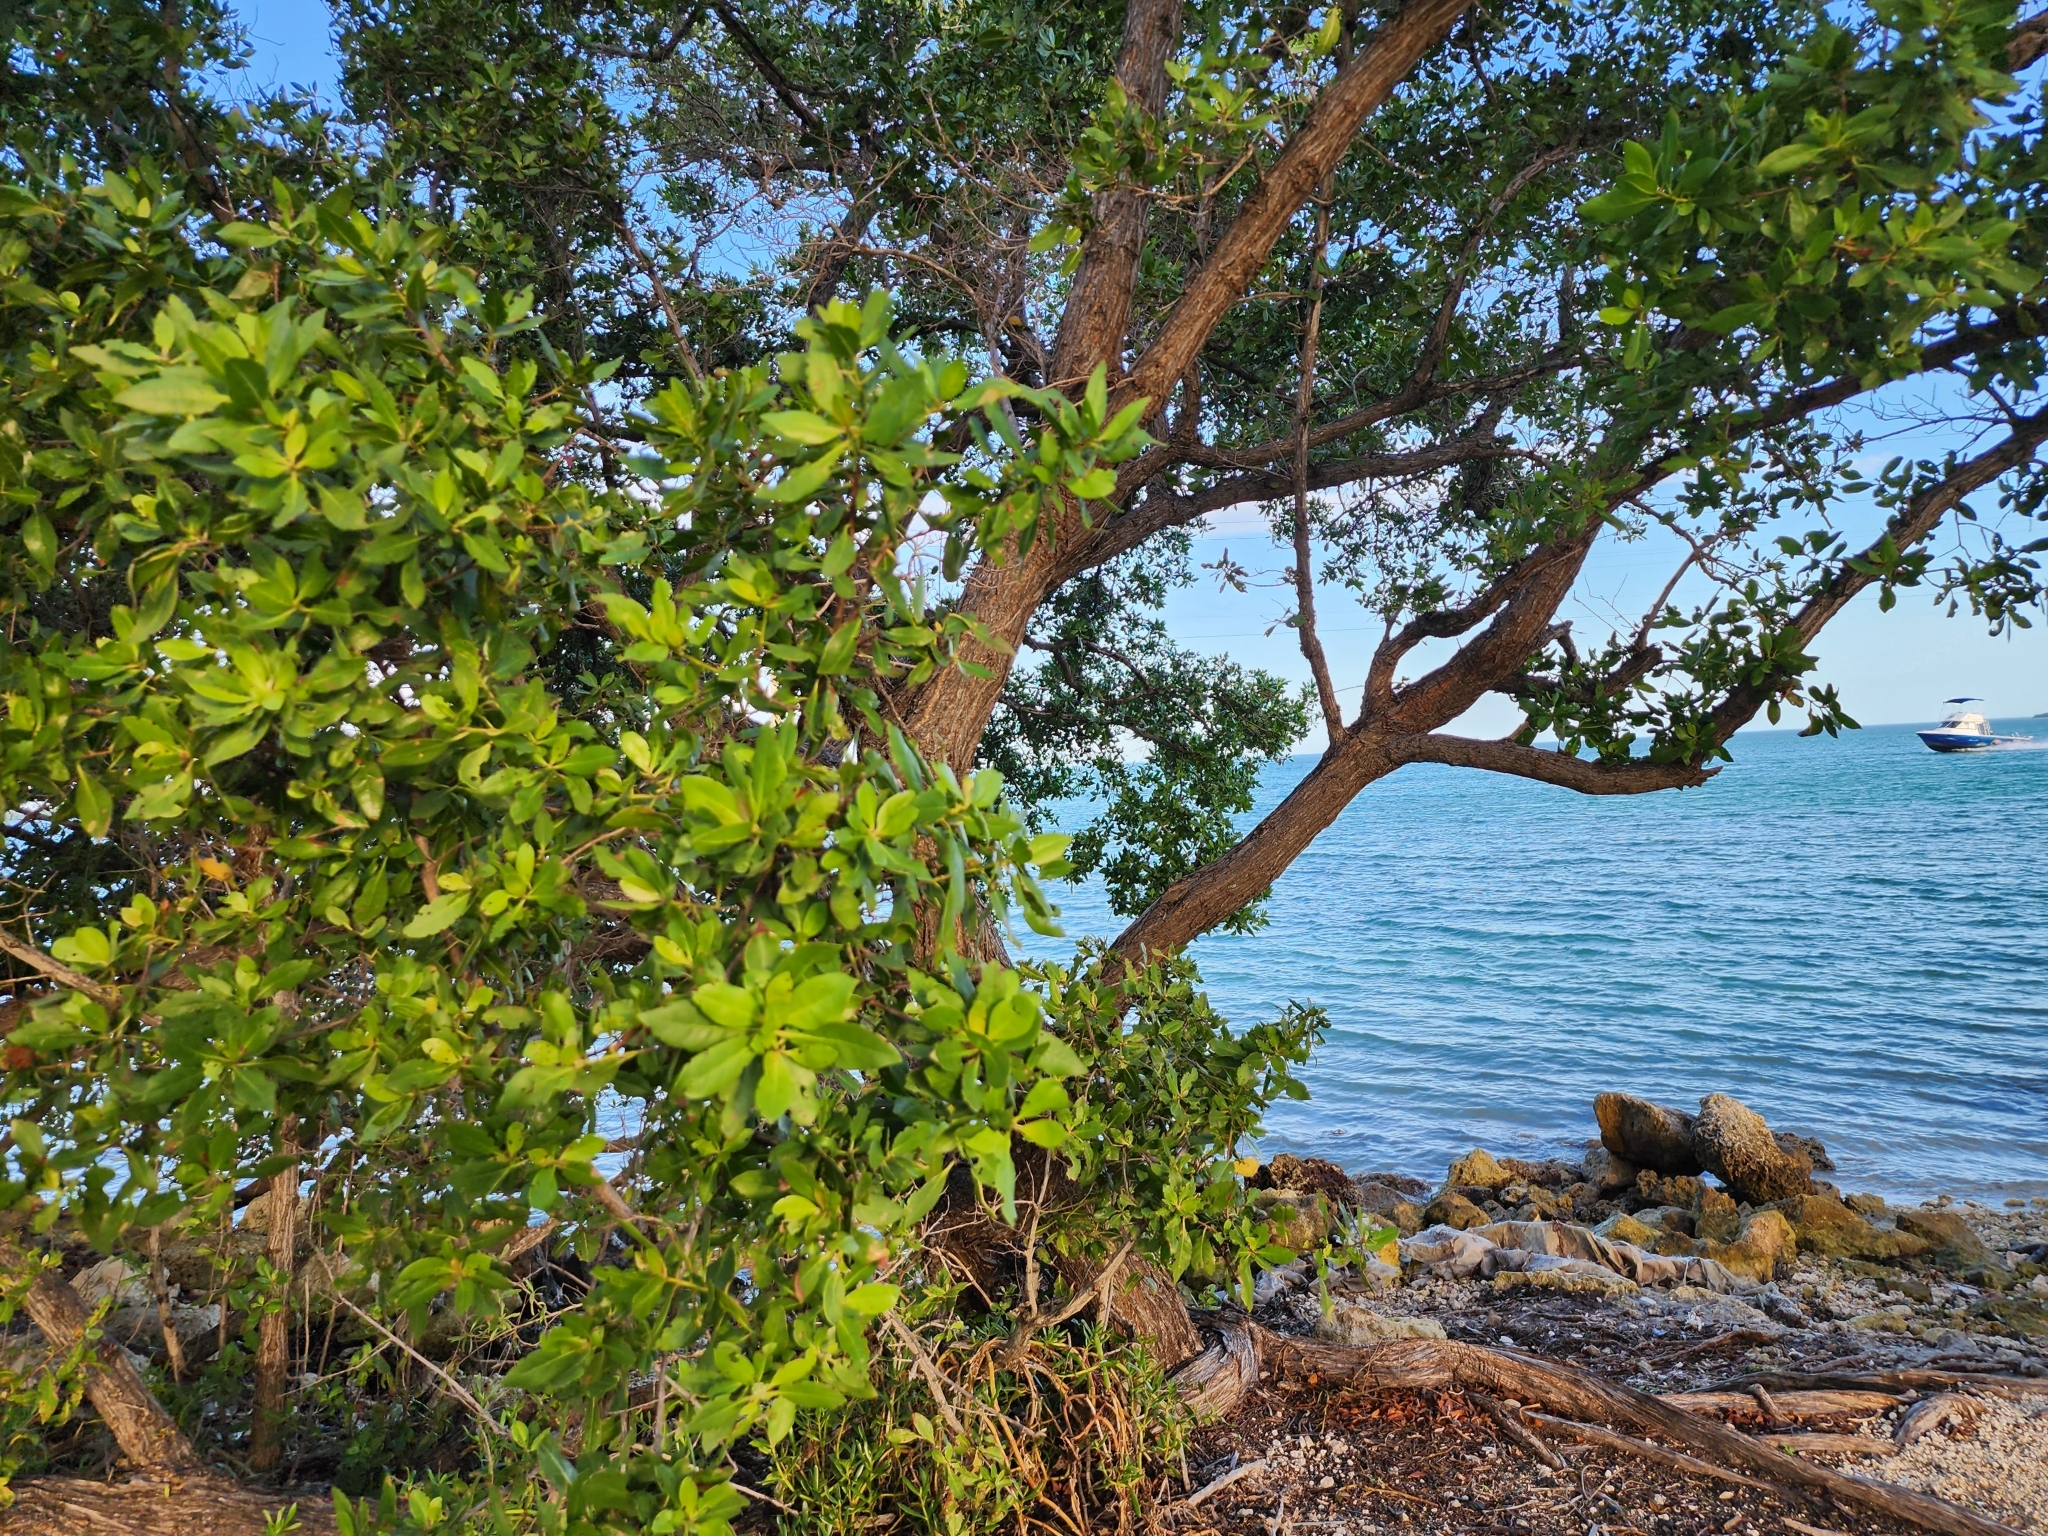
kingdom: Plantae
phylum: Tracheophyta
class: Magnoliopsida
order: Myrtales
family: Combretaceae
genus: Conocarpus
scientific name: Conocarpus erectus
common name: Button mangrove
